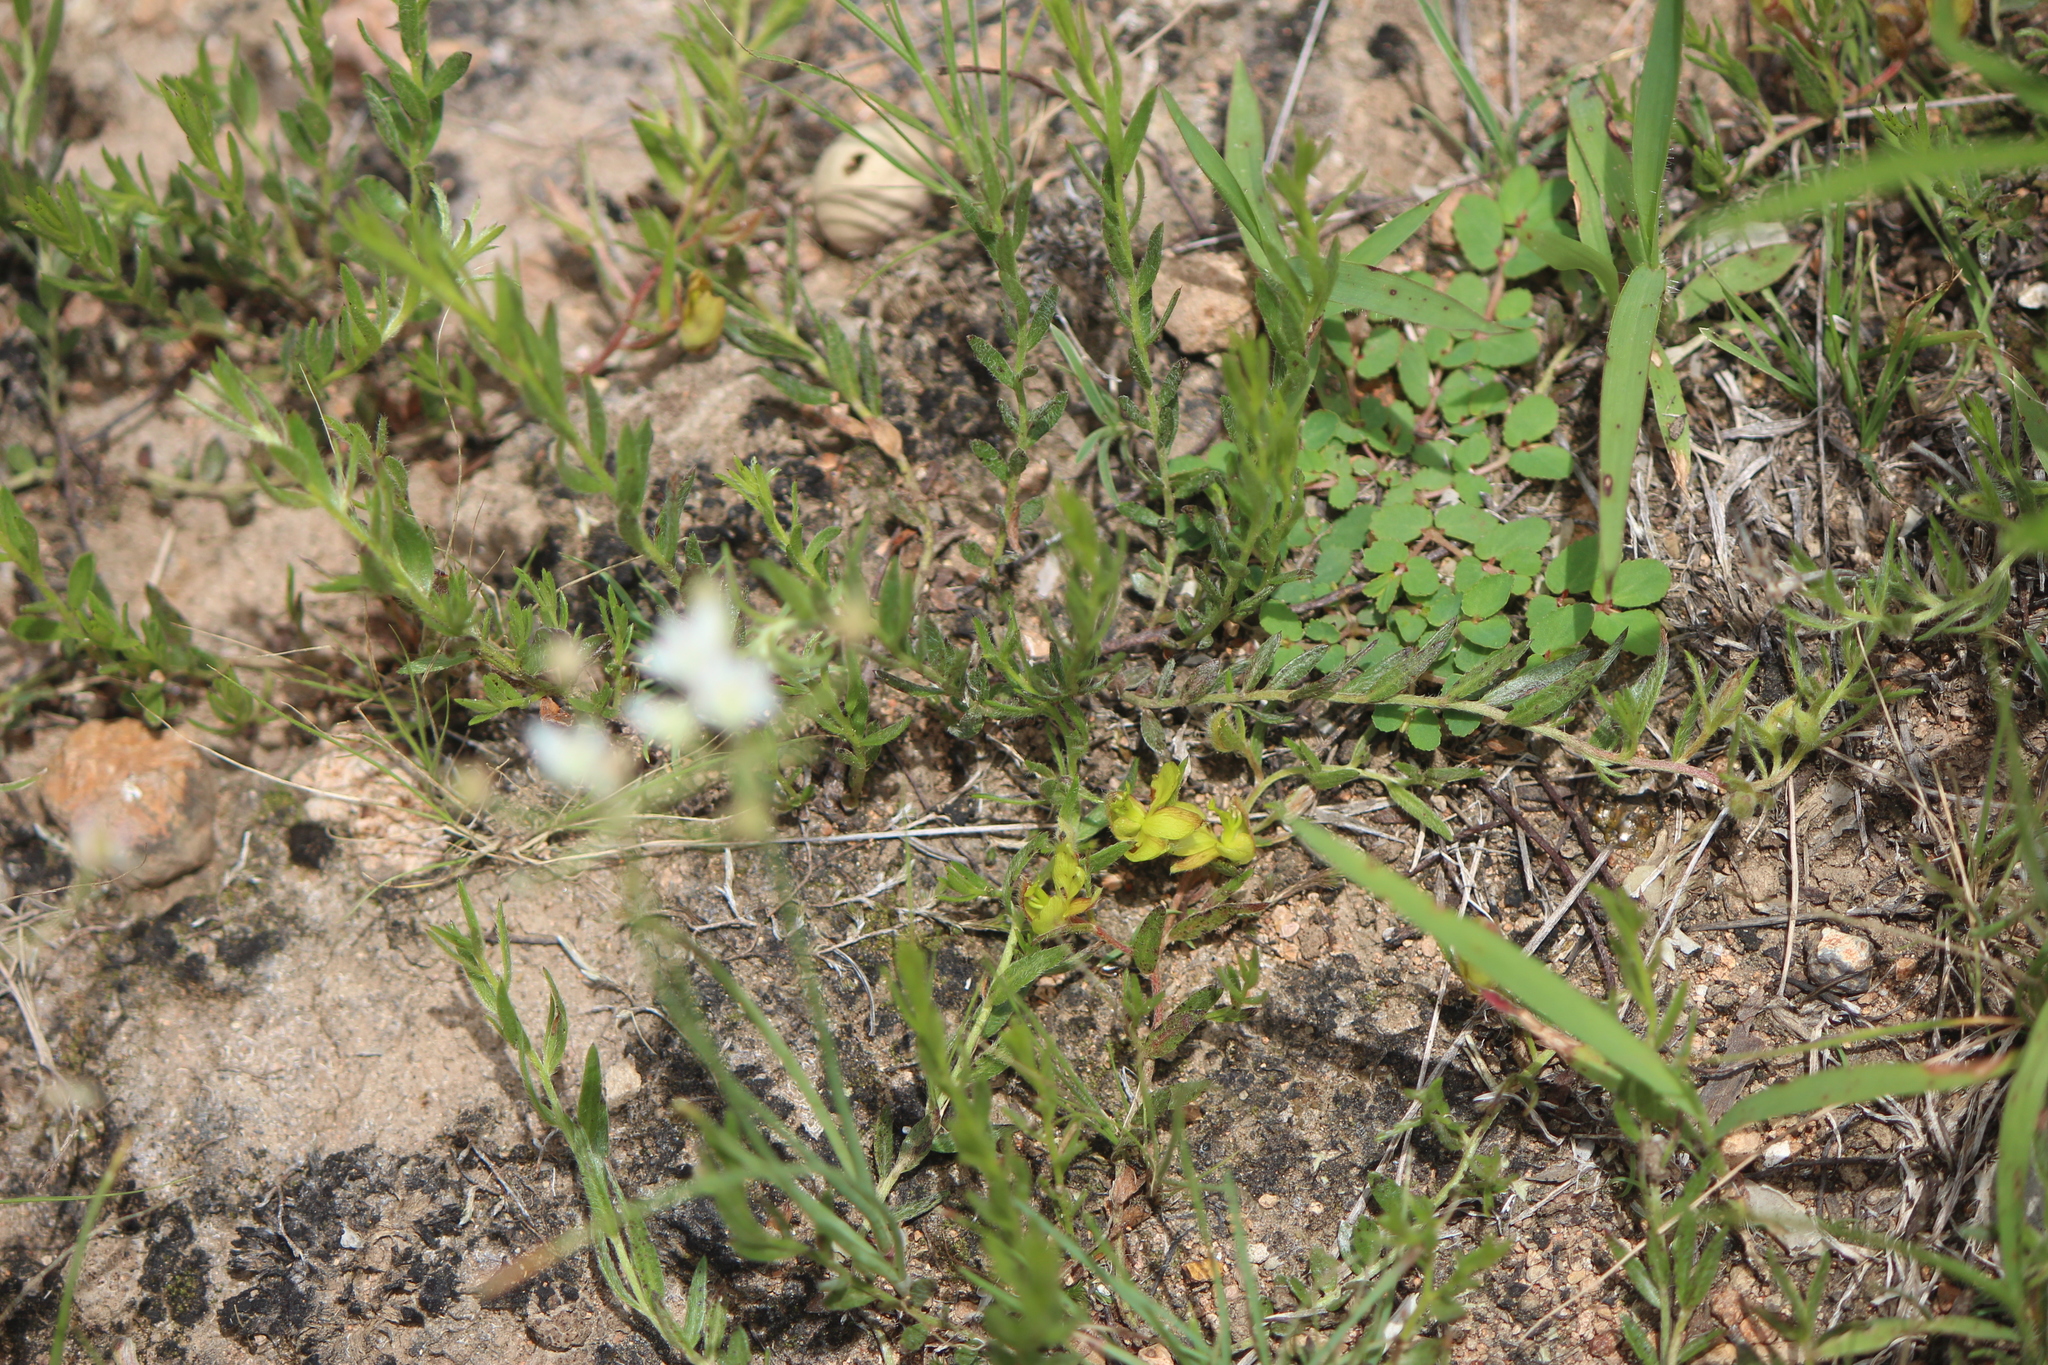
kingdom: Plantae
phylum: Tracheophyta
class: Magnoliopsida
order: Zygophyllales
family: Krameriaceae
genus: Krameria
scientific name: Krameria pauciflora
